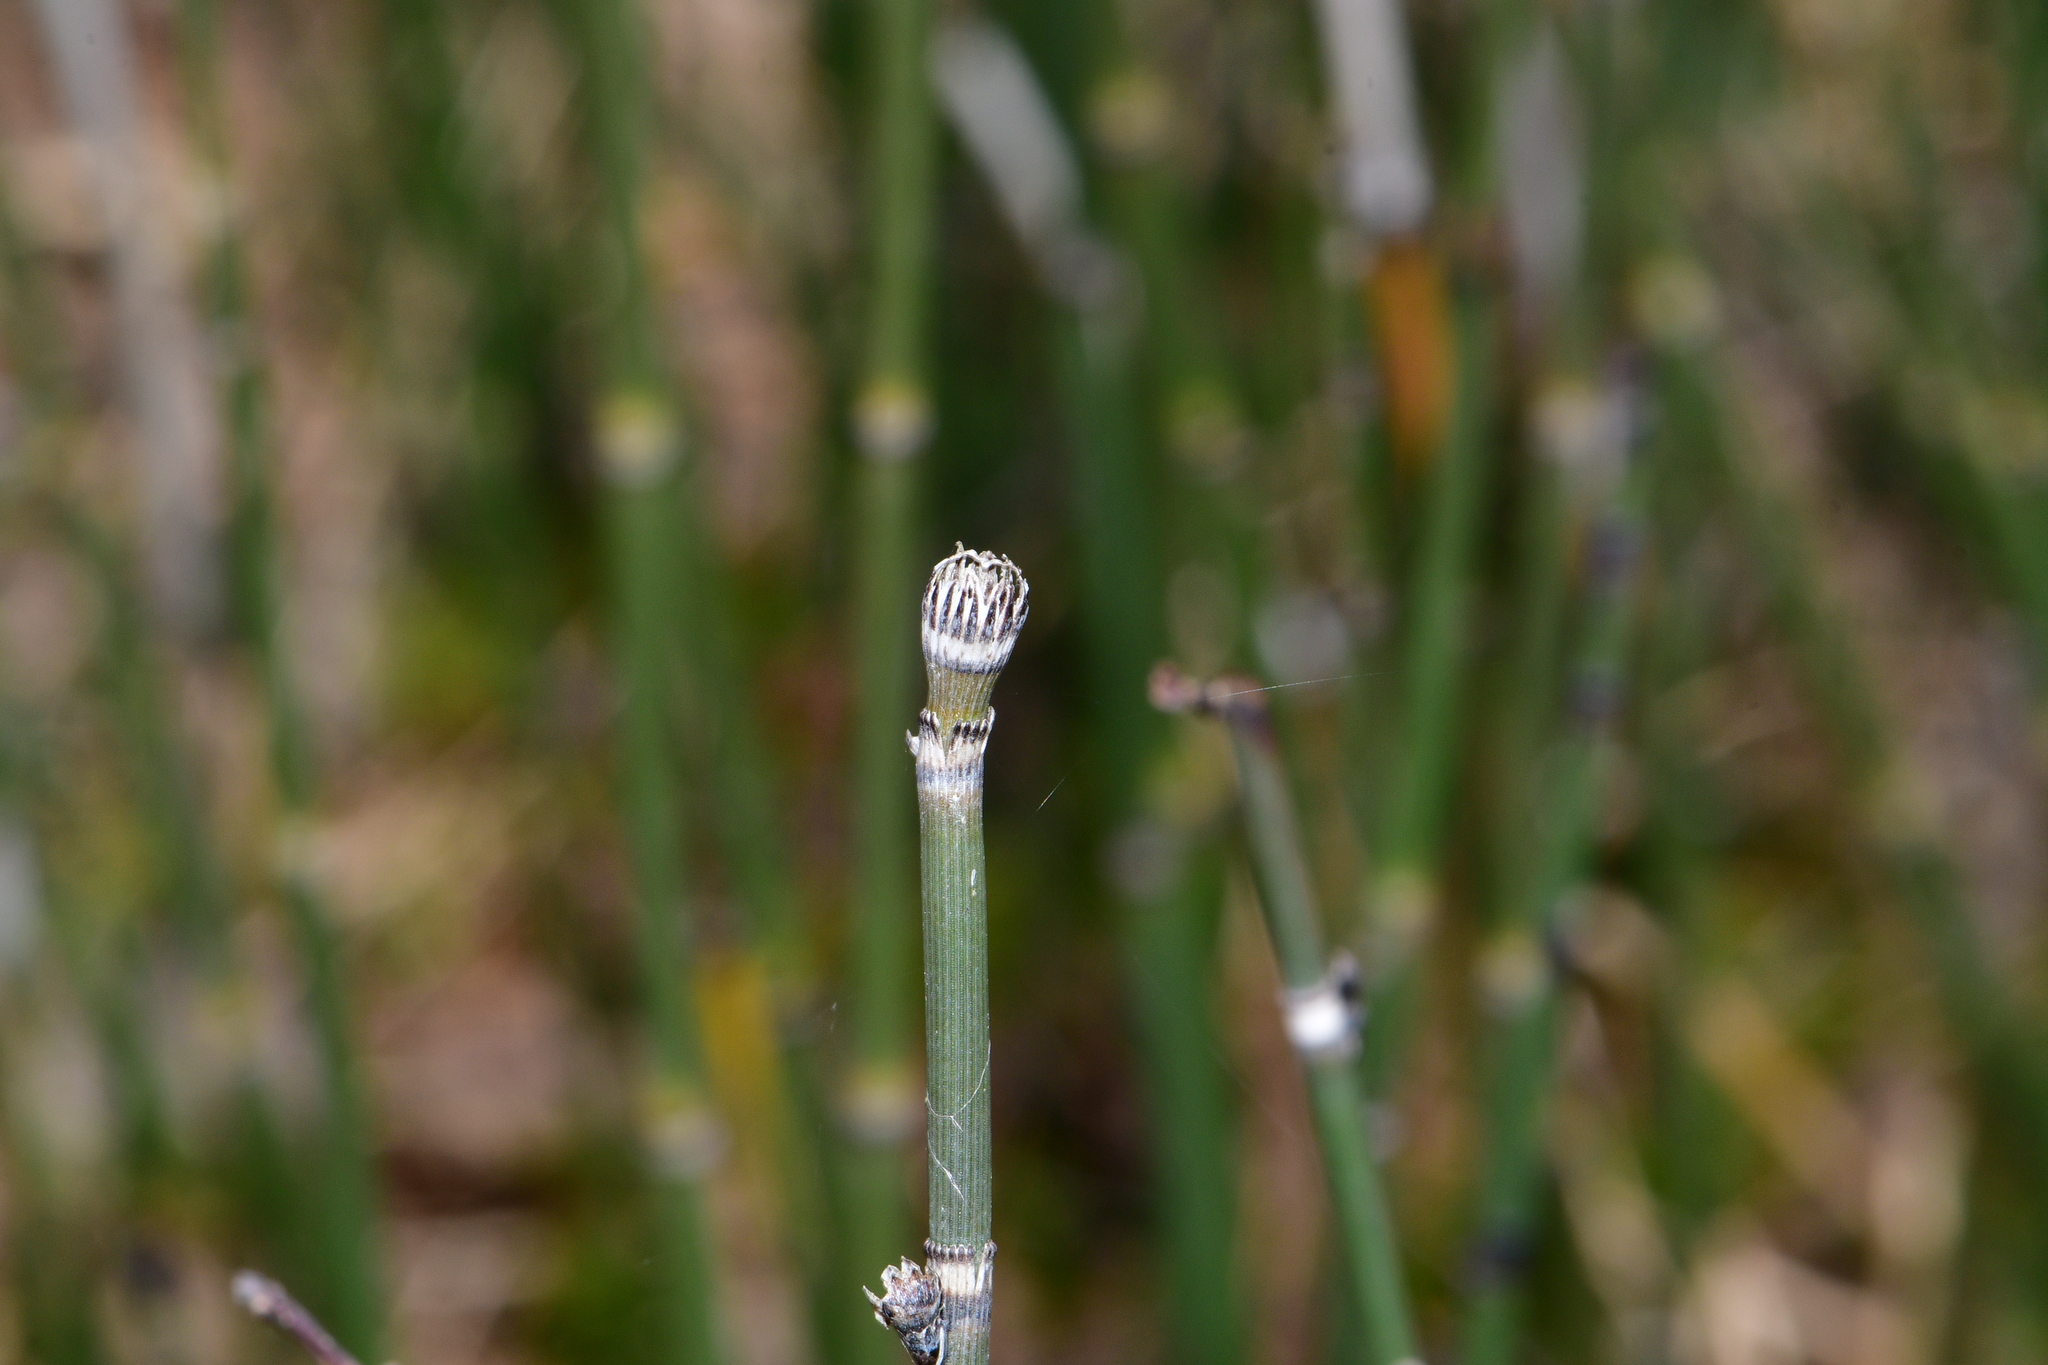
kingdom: Plantae
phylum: Tracheophyta
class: Polypodiopsida
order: Equisetales
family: Equisetaceae
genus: Equisetum
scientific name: Equisetum hyemale
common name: Rough horsetail
